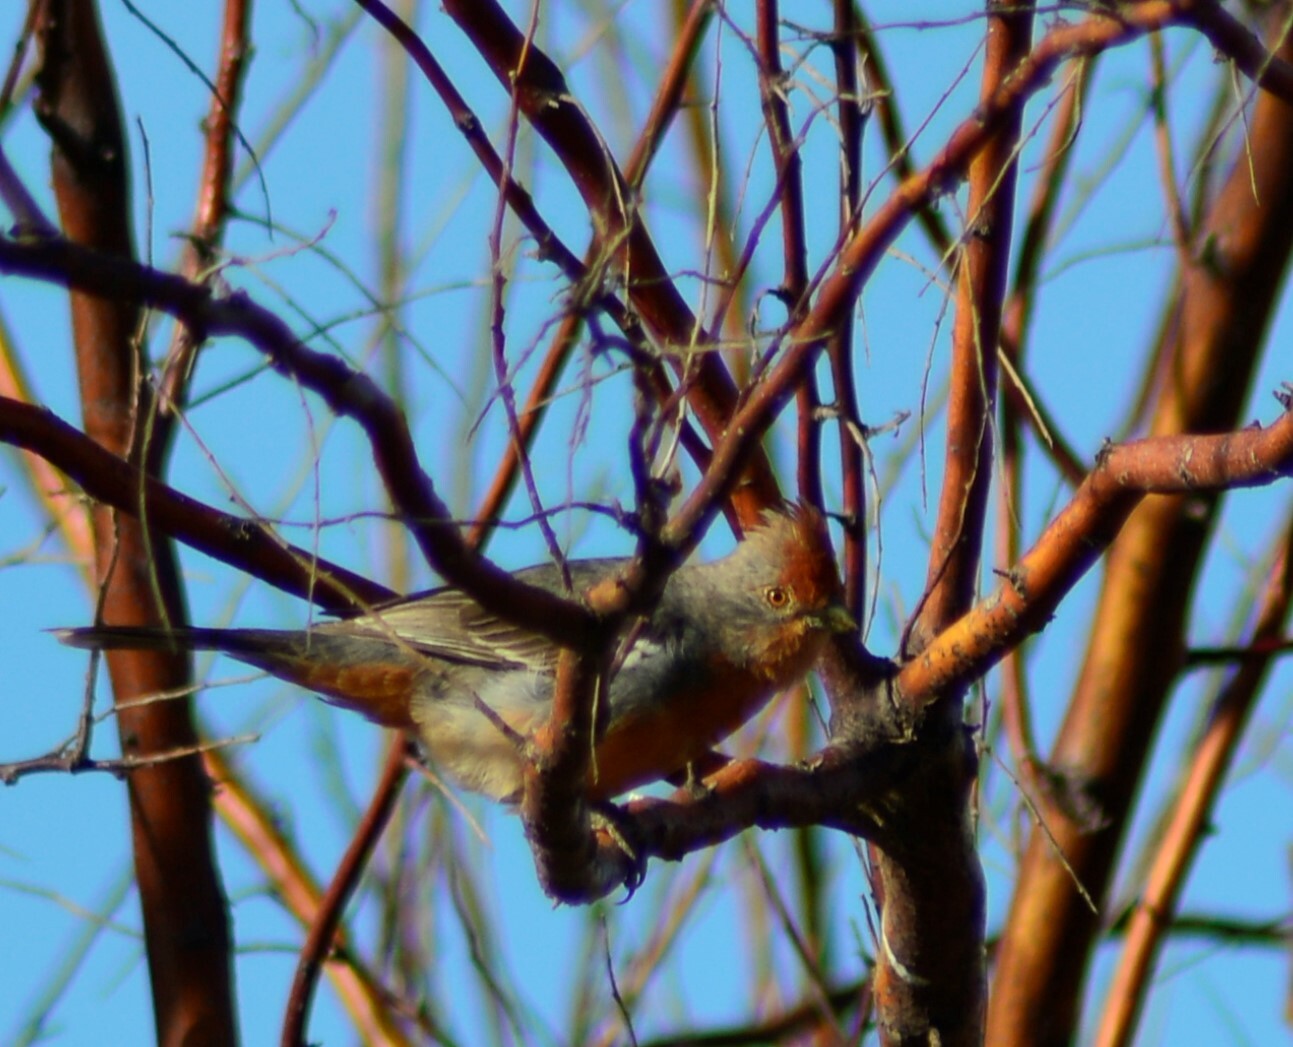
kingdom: Animalia
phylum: Chordata
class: Aves
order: Passeriformes
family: Cotingidae
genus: Phytotoma
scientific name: Phytotoma rutila
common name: White-tipped plantcutter
